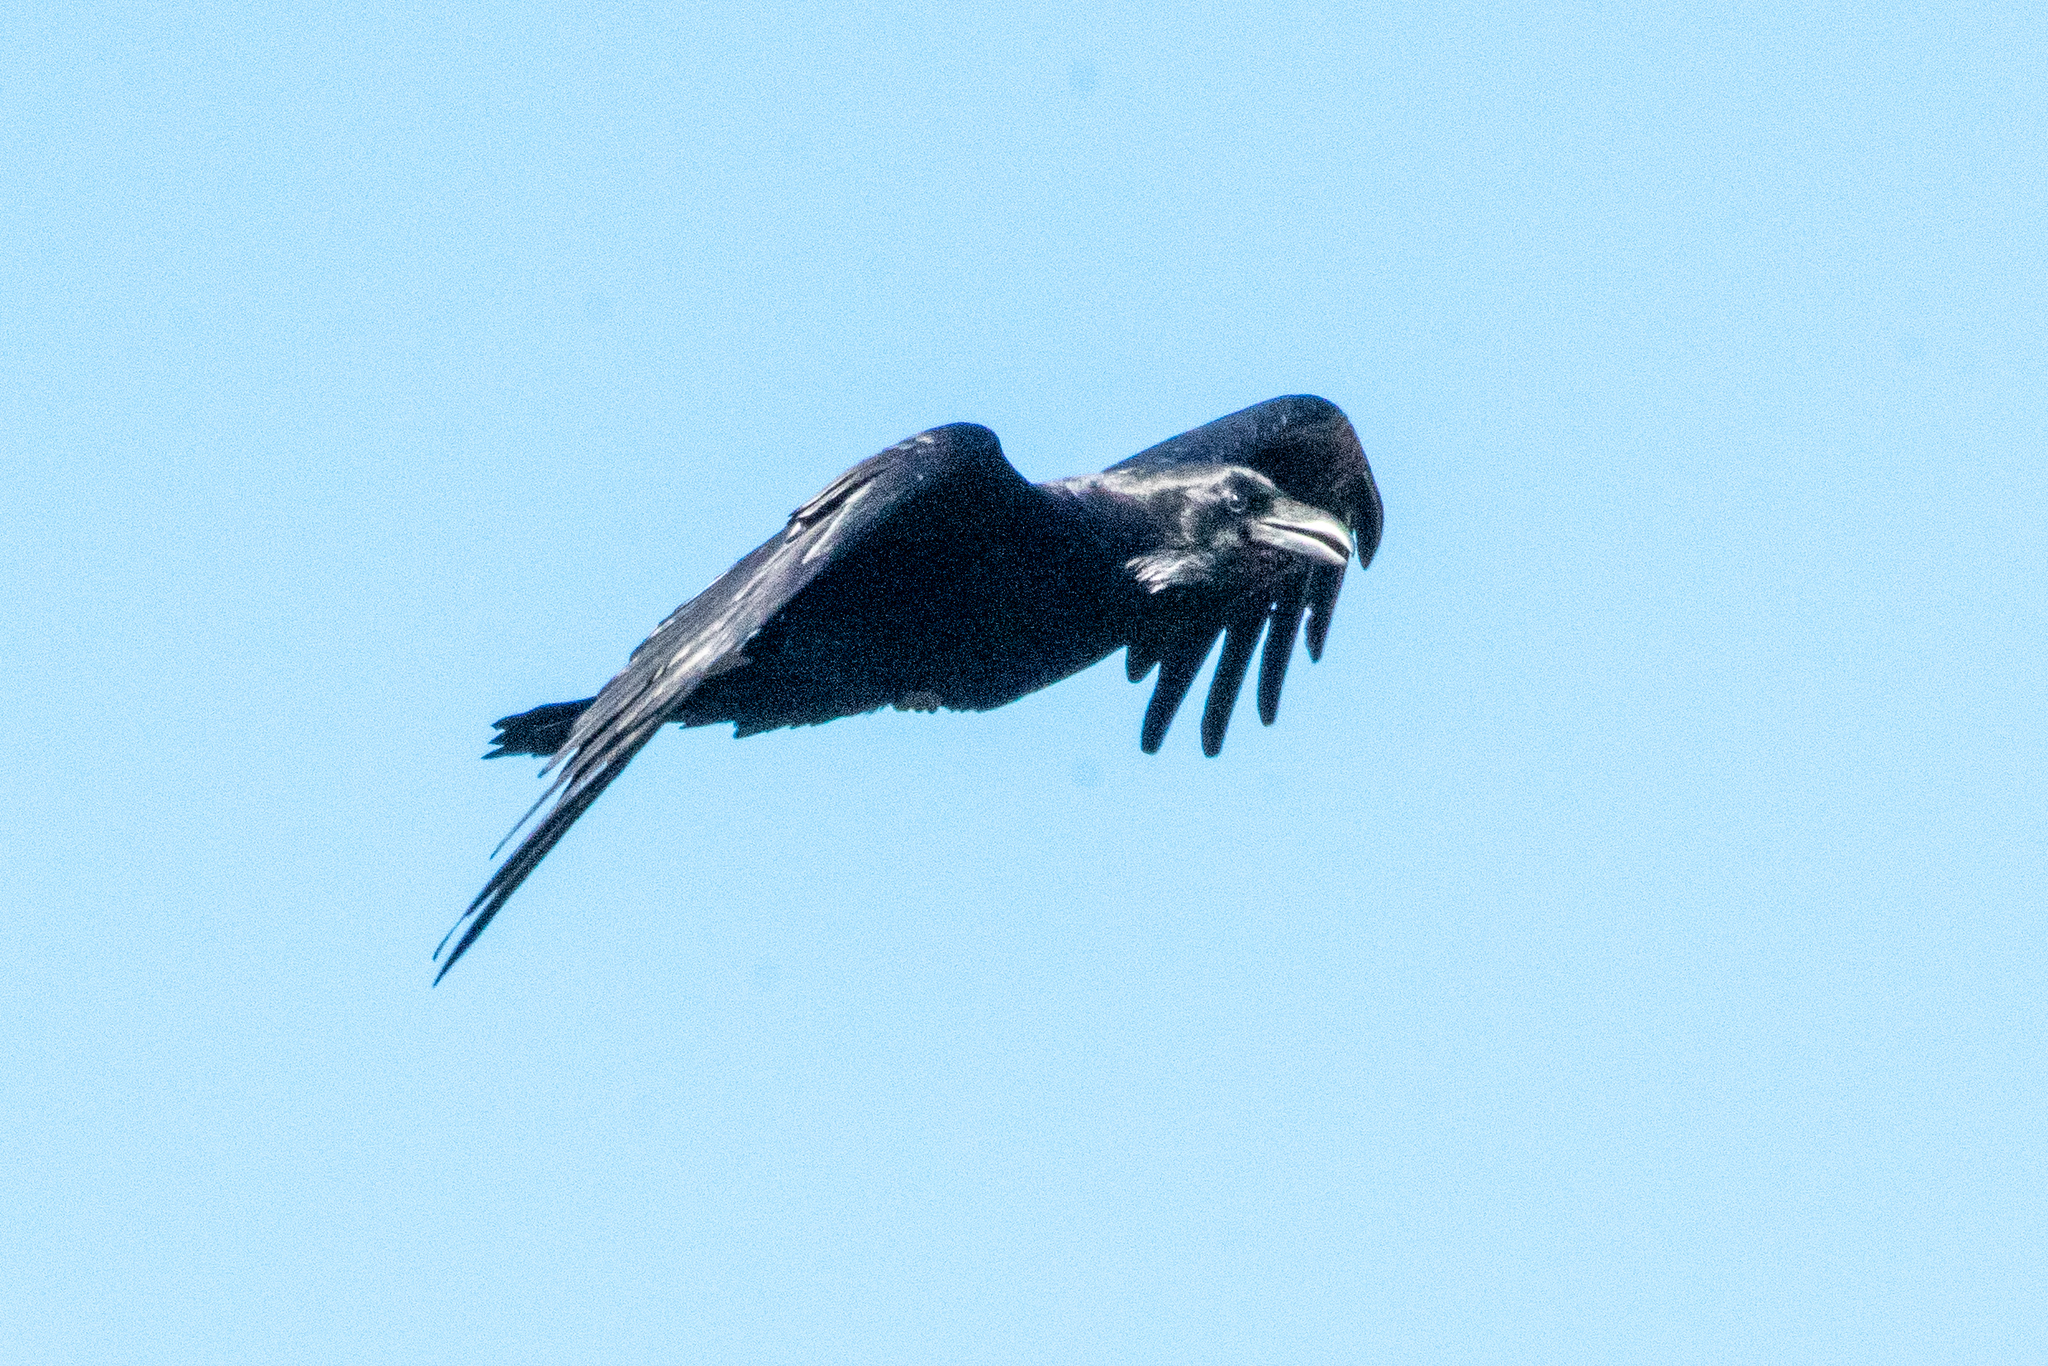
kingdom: Animalia
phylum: Chordata
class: Aves
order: Passeriformes
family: Corvidae
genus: Corvus
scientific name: Corvus corax
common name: Common raven
